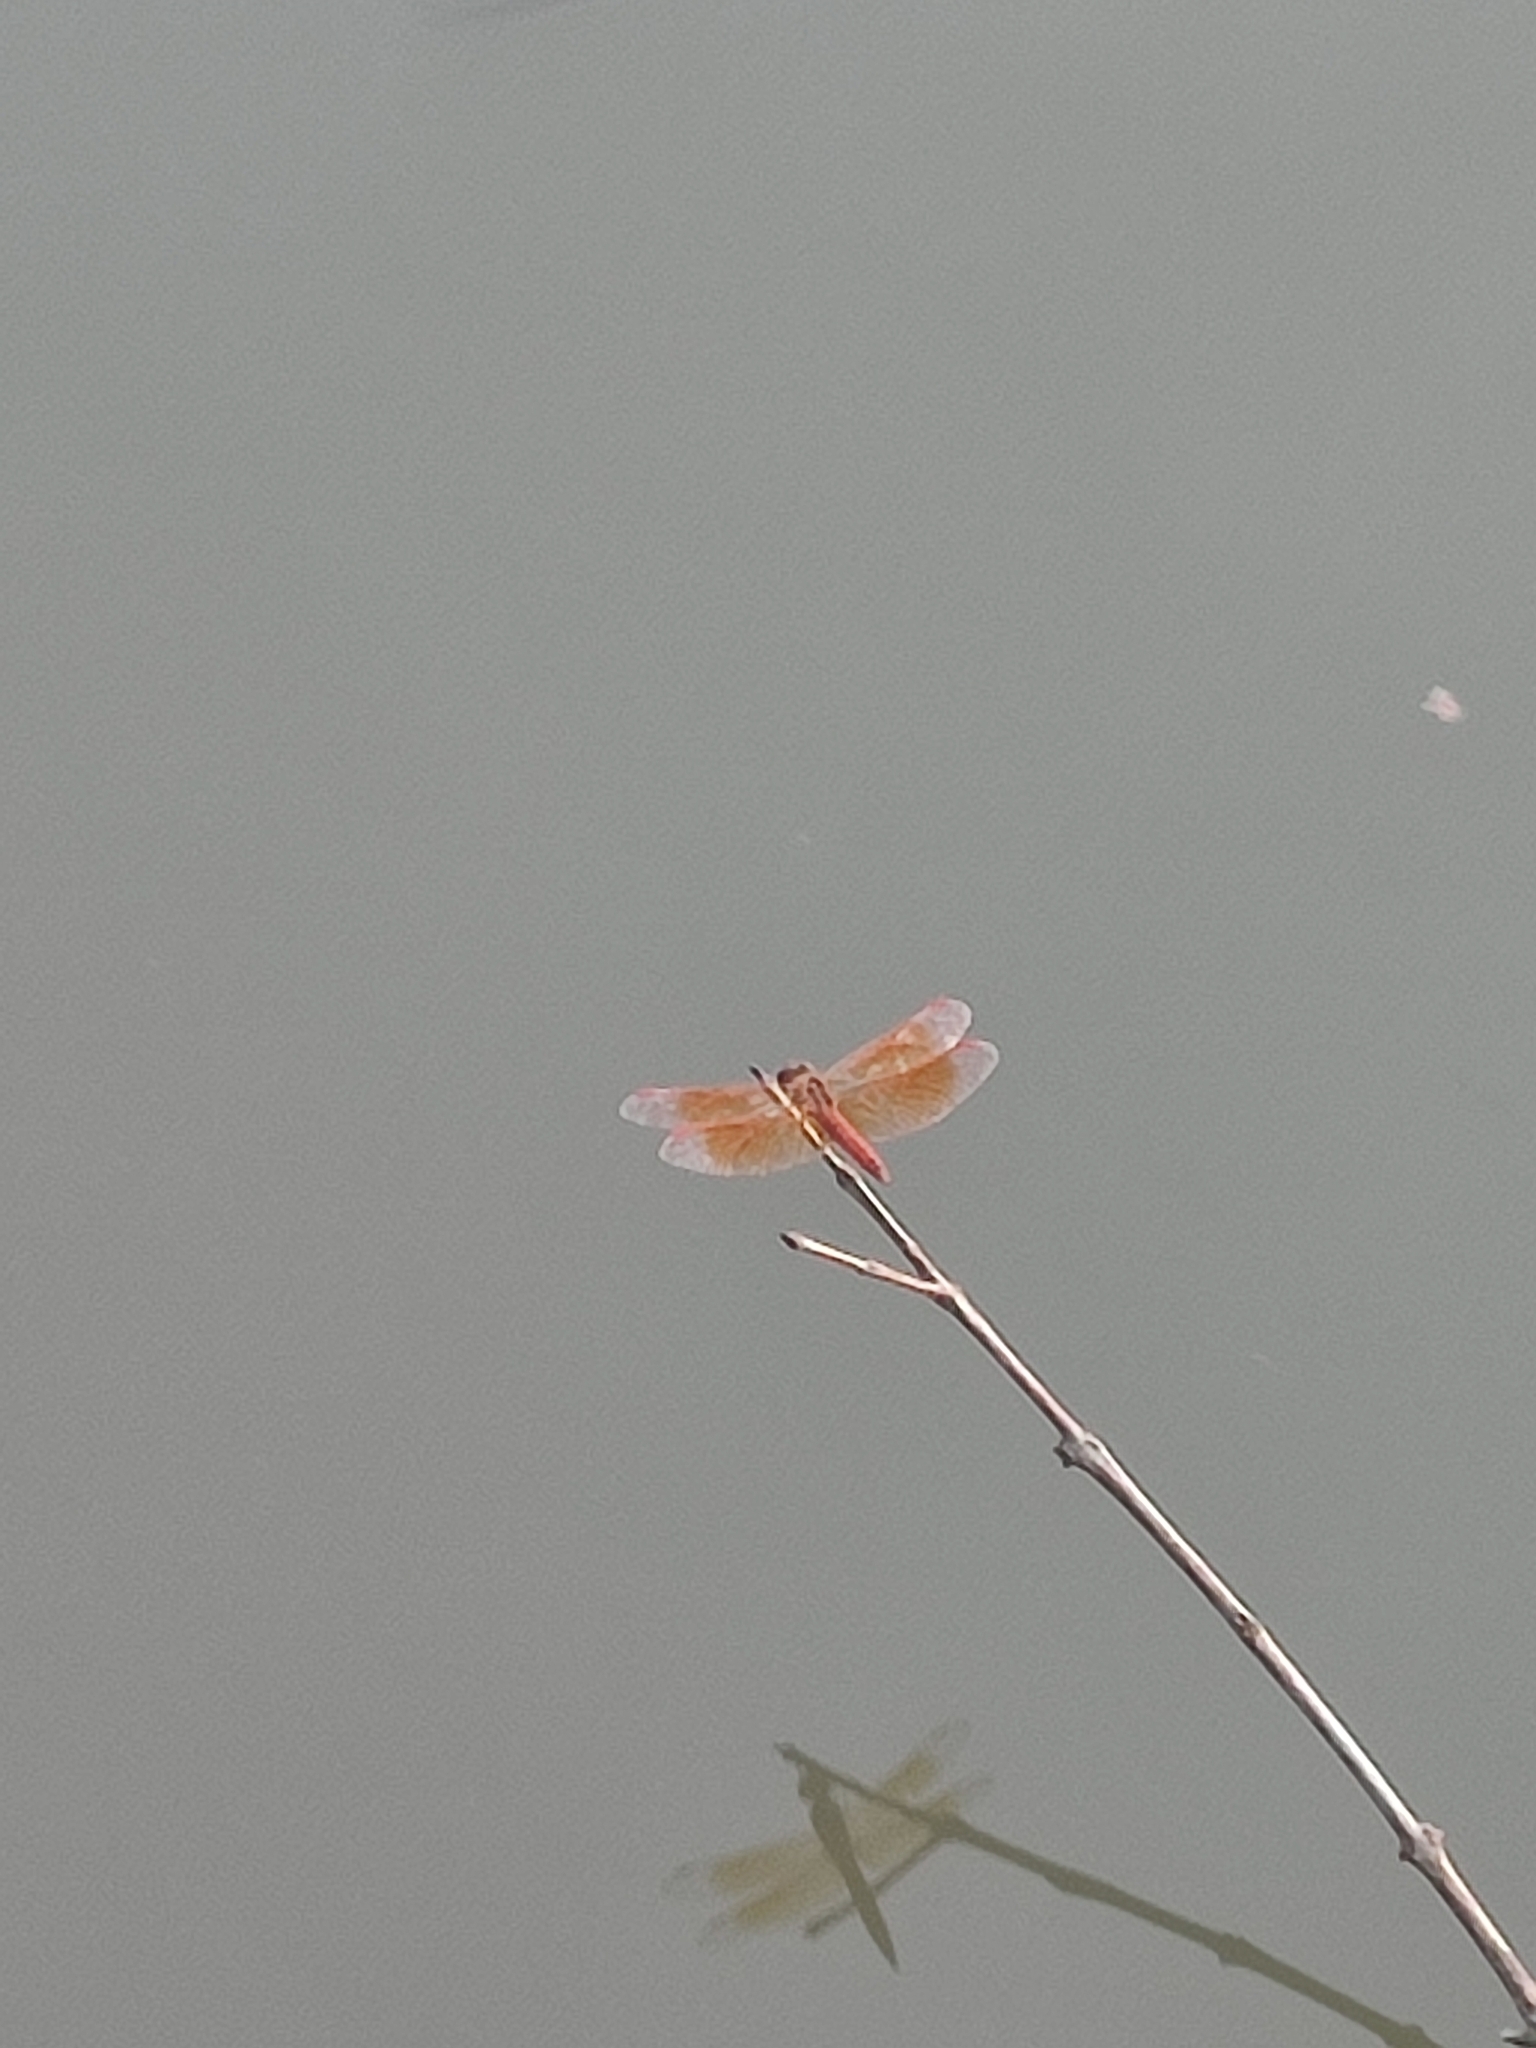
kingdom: Animalia
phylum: Arthropoda
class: Insecta
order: Odonata
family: Libellulidae
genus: Brachythemis
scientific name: Brachythemis contaminata
